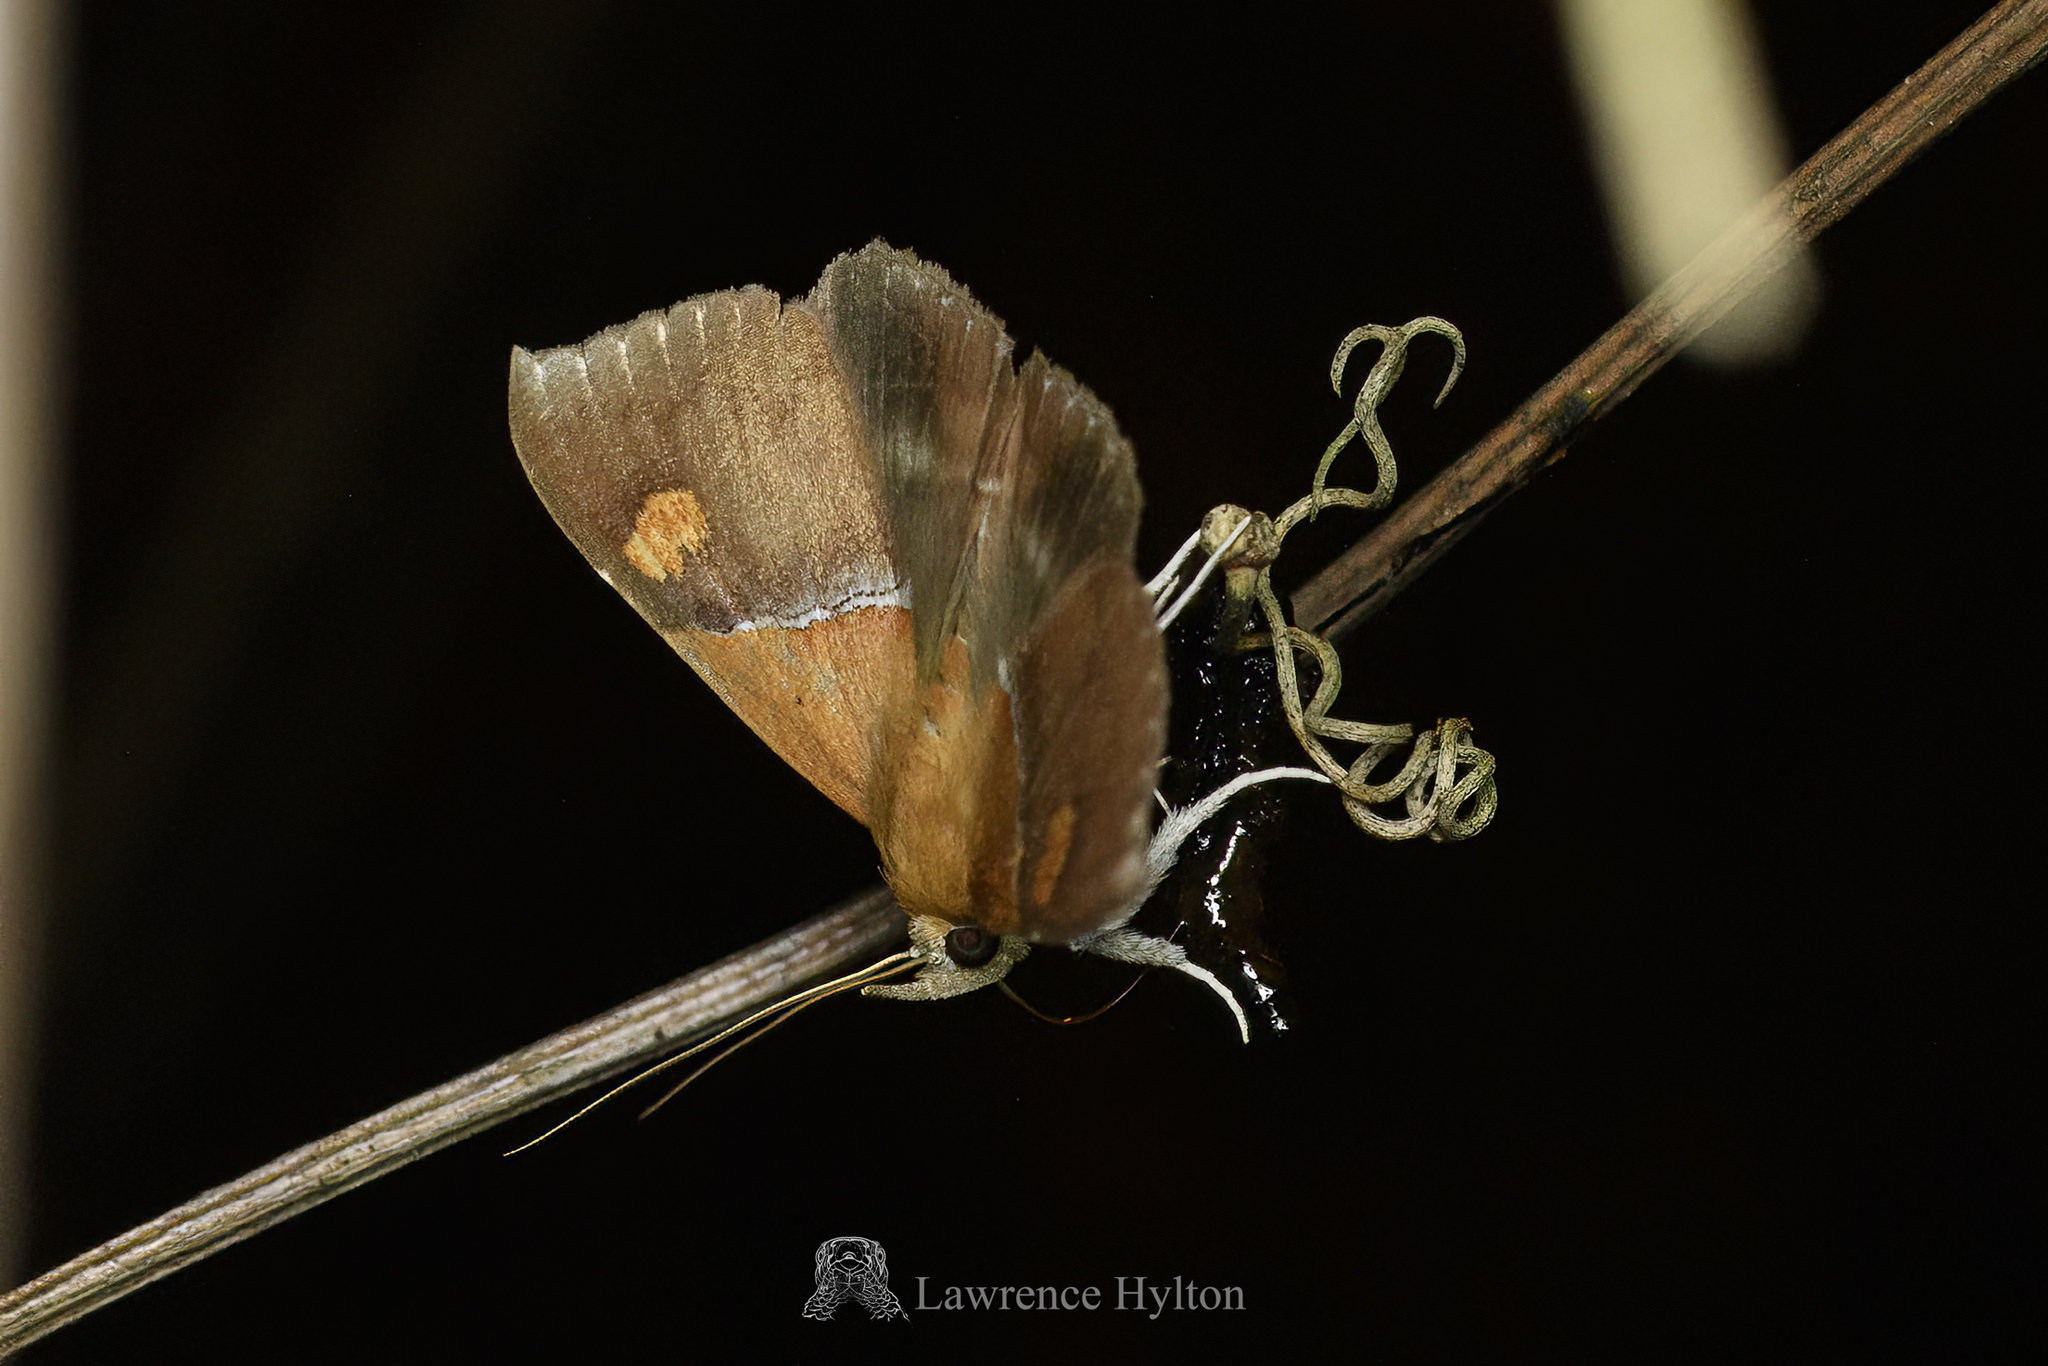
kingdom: Animalia
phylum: Arthropoda
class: Insecta
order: Lepidoptera
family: Erebidae
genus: Sympis
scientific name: Sympis rufibasis
